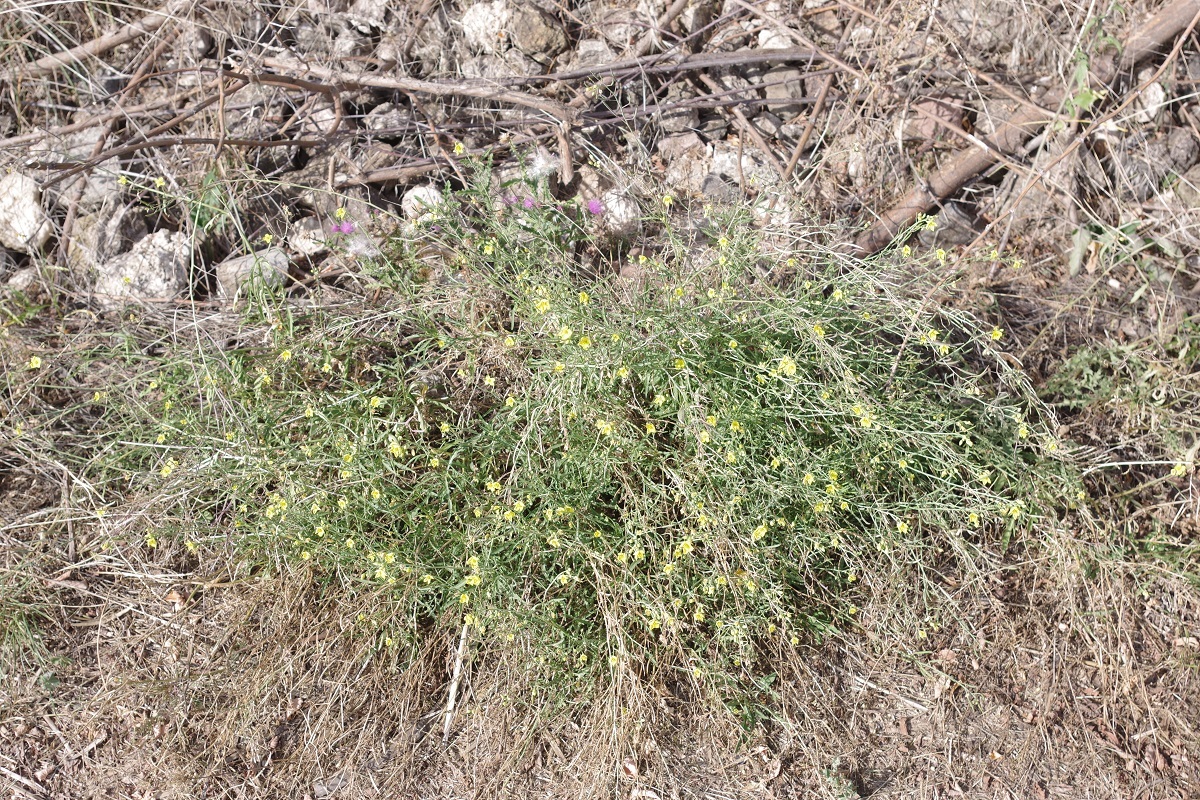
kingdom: Plantae
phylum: Tracheophyta
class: Magnoliopsida
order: Brassicales
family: Brassicaceae
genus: Diplotaxis
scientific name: Diplotaxis tenuifolia
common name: Perennial wall-rocket
